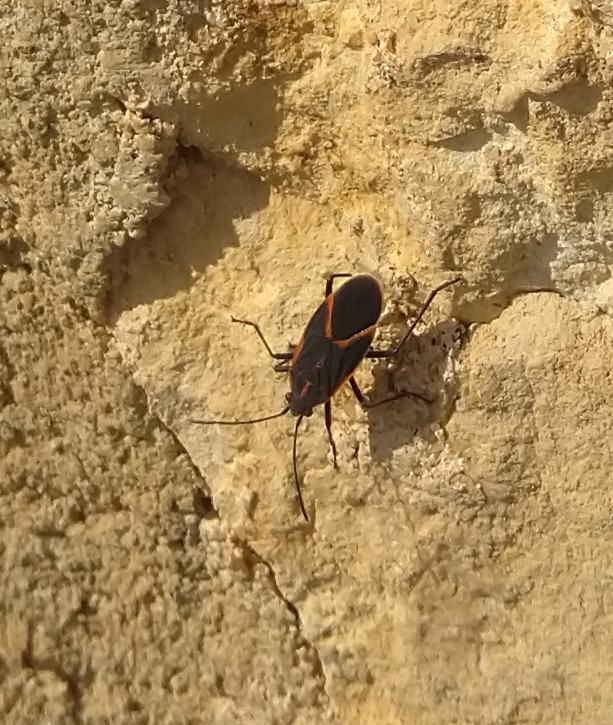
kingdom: Animalia
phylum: Arthropoda
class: Insecta
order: Hemiptera
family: Rhopalidae
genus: Boisea
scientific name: Boisea trivittata
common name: Boxelder bug
